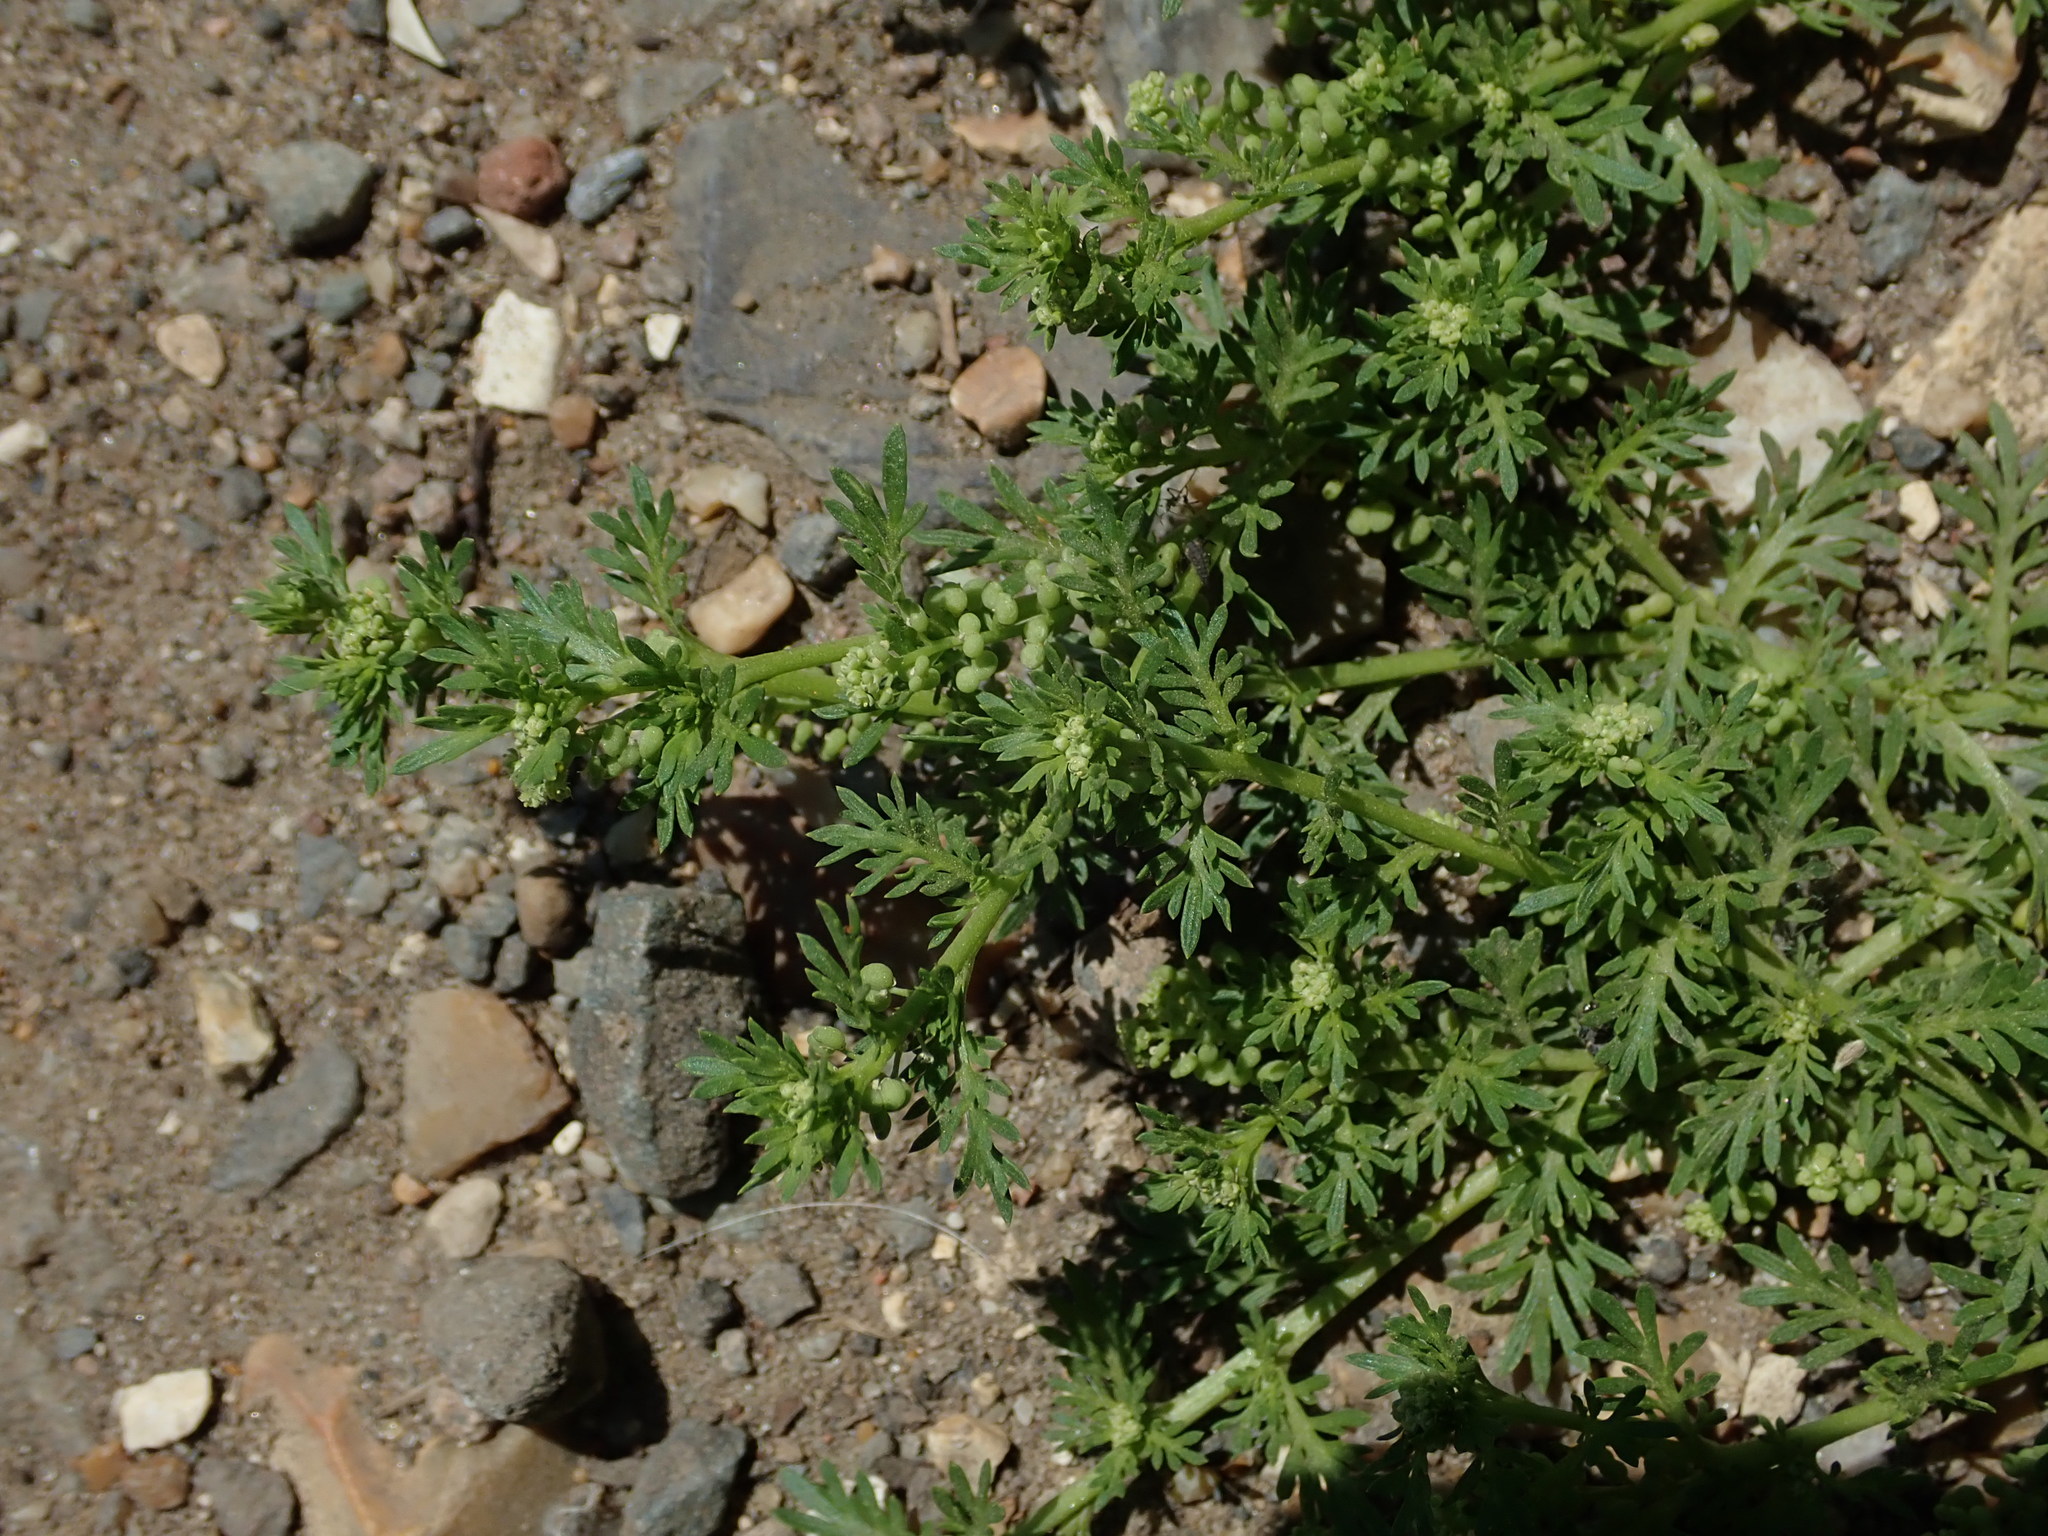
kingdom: Plantae
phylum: Tracheophyta
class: Magnoliopsida
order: Brassicales
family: Brassicaceae
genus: Lepidium
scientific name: Lepidium didymum
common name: Lesser swinecress
